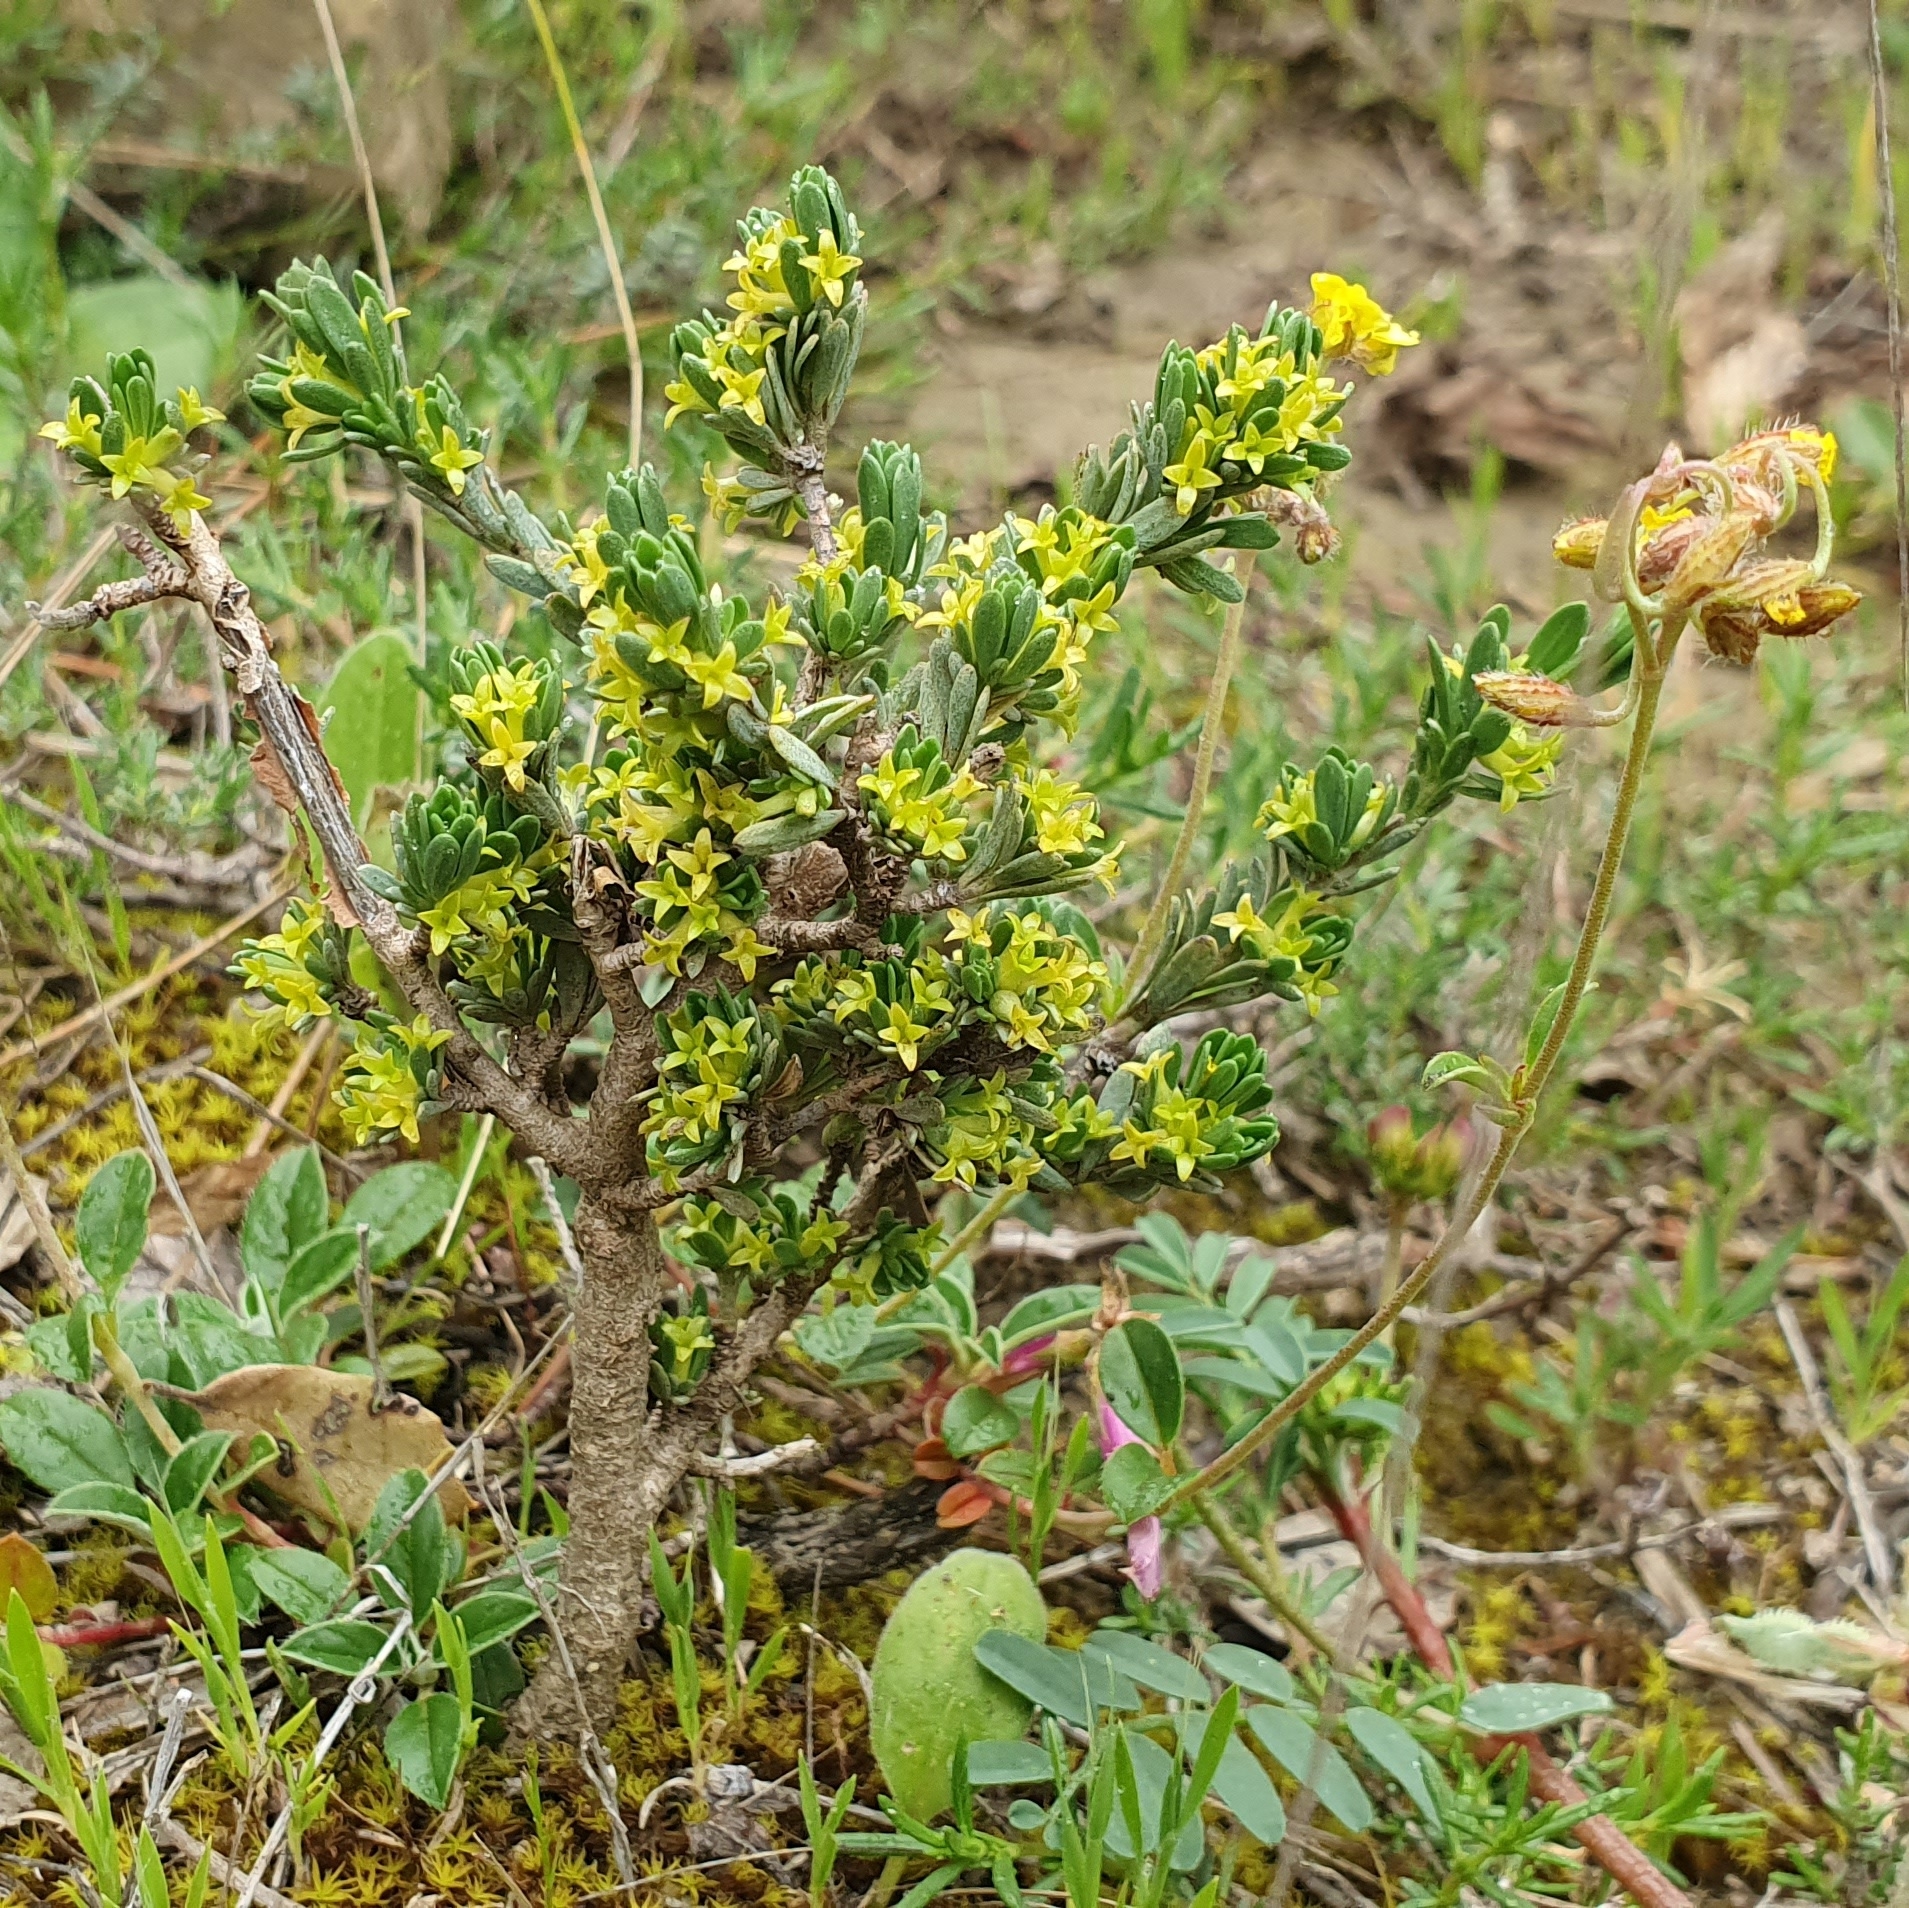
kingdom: Plantae
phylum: Tracheophyta
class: Magnoliopsida
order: Malvales
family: Thymelaeaceae
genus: Thymelaea
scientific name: Thymelaea argentata
